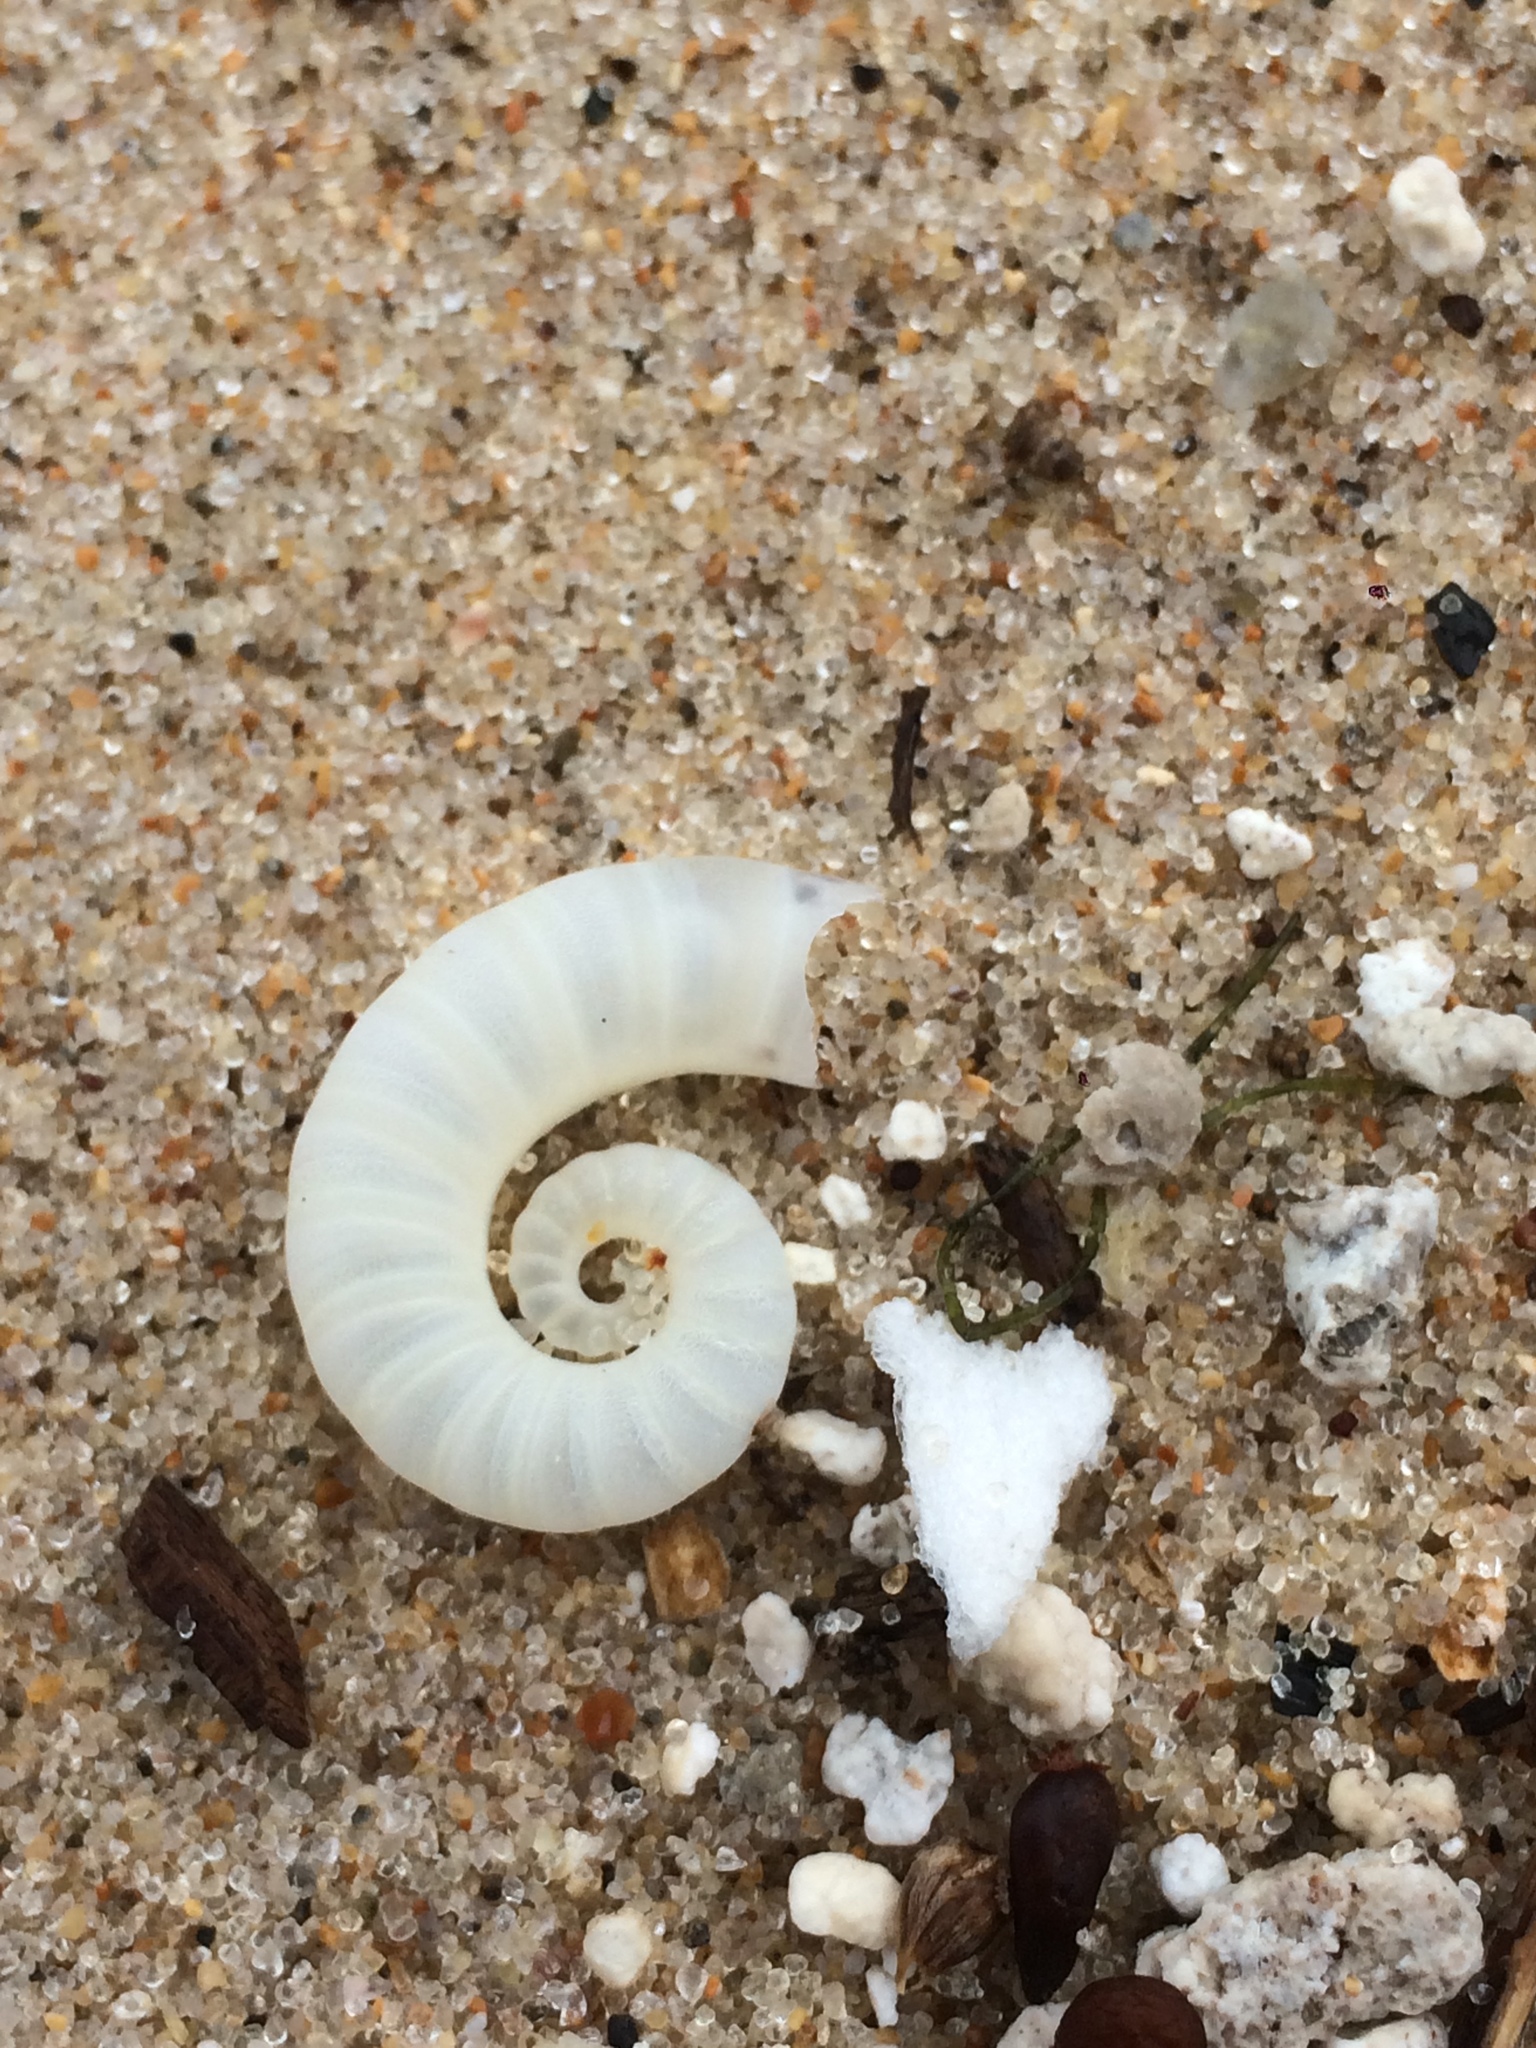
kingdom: Animalia
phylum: Mollusca
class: Cephalopoda
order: Spirulida
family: Spirulidae
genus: Spirula
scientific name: Spirula spirula
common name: Ram's horn squid
